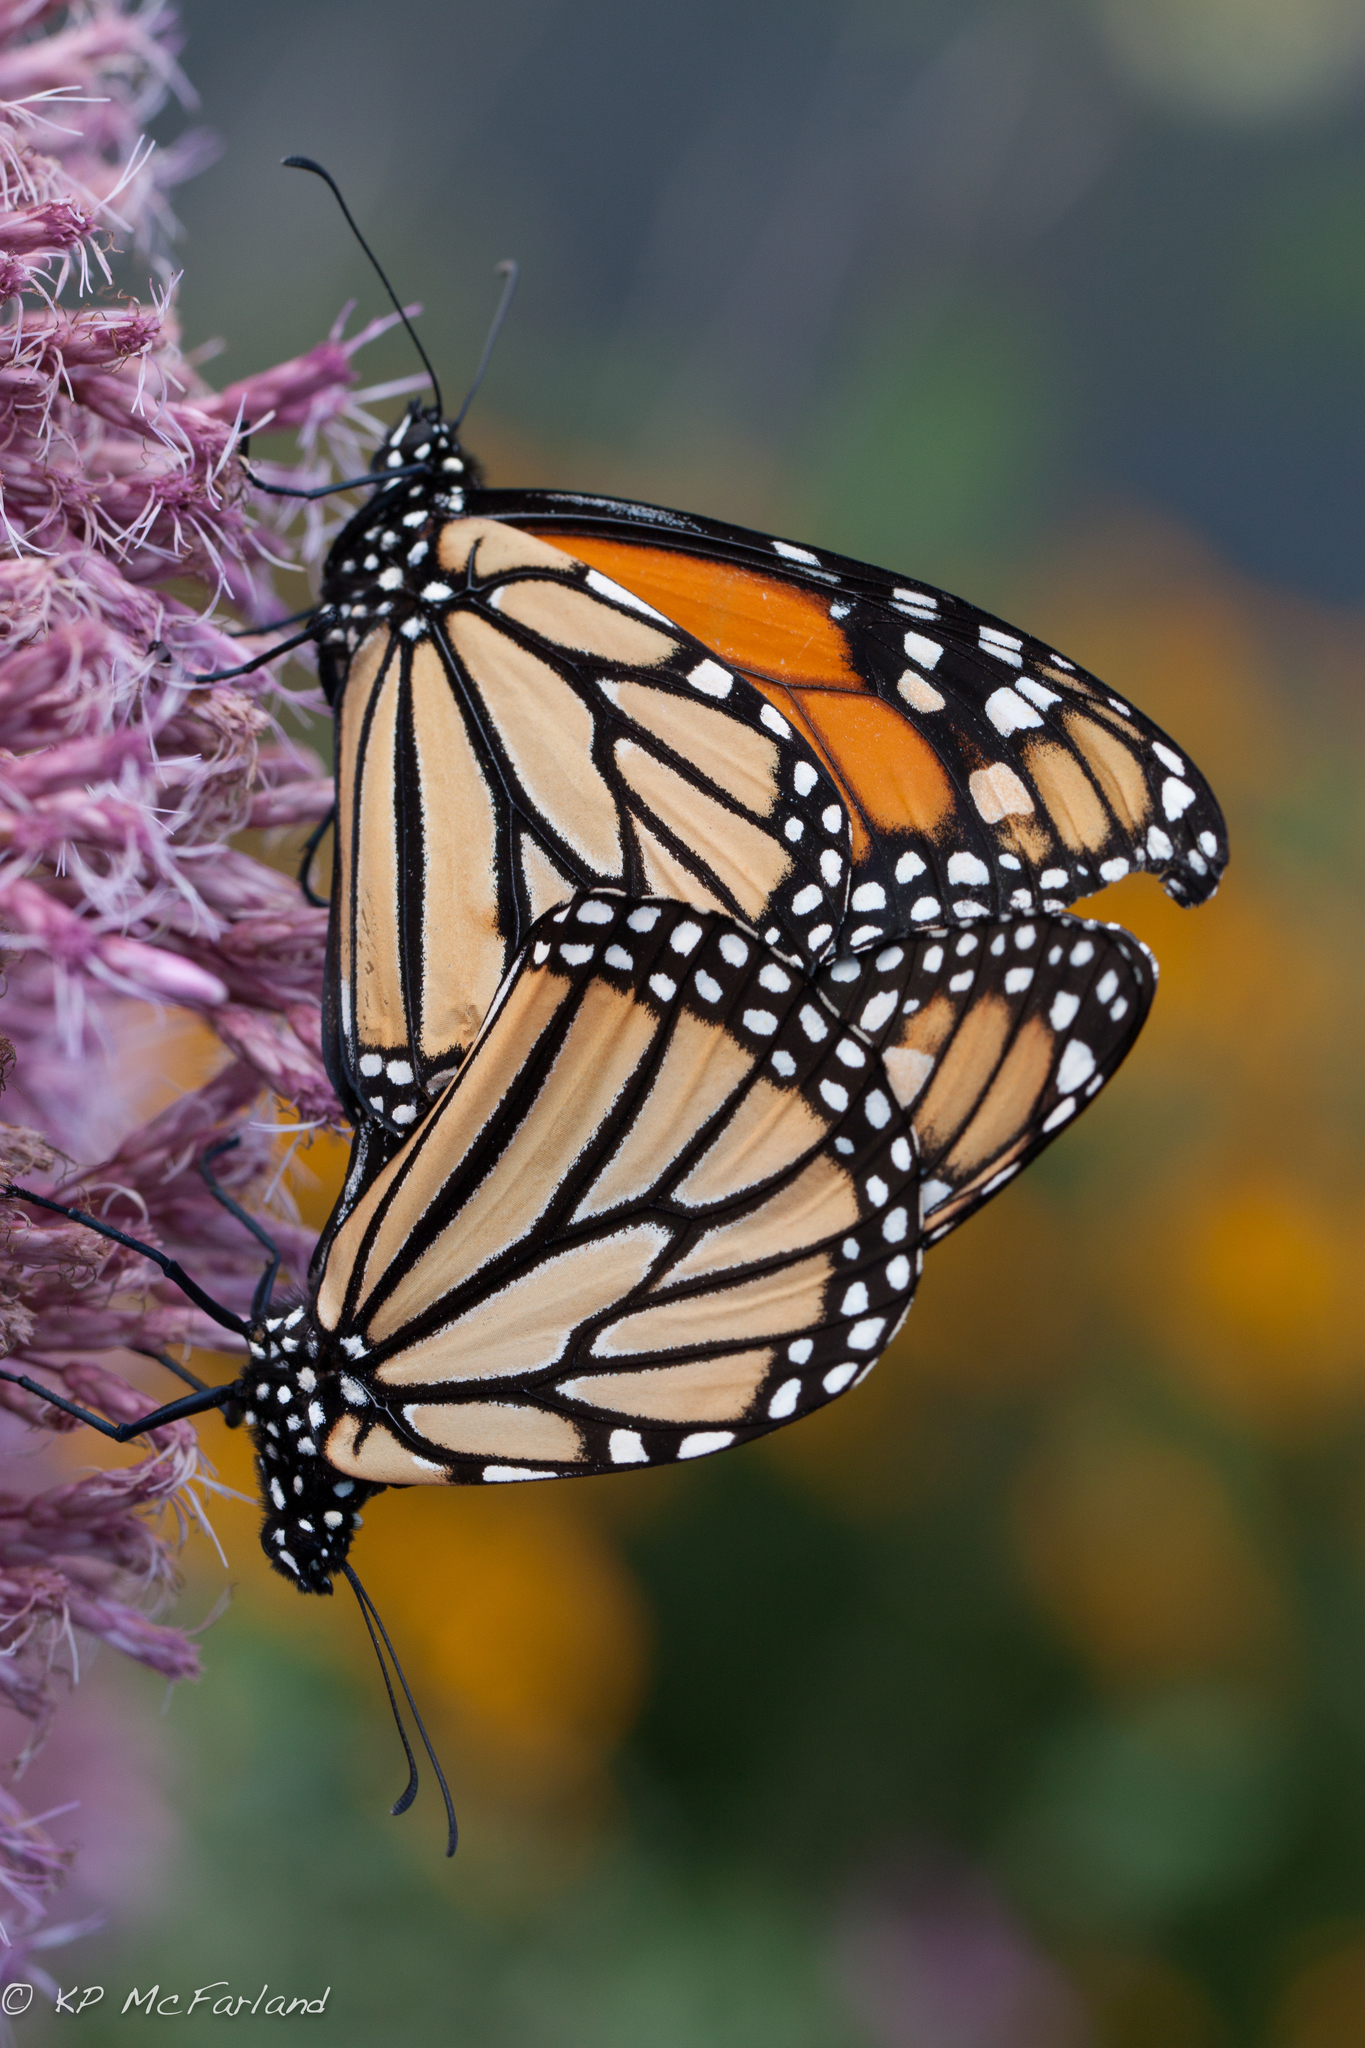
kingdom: Animalia
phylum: Arthropoda
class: Insecta
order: Lepidoptera
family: Nymphalidae
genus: Danaus
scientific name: Danaus plexippus
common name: Monarch
